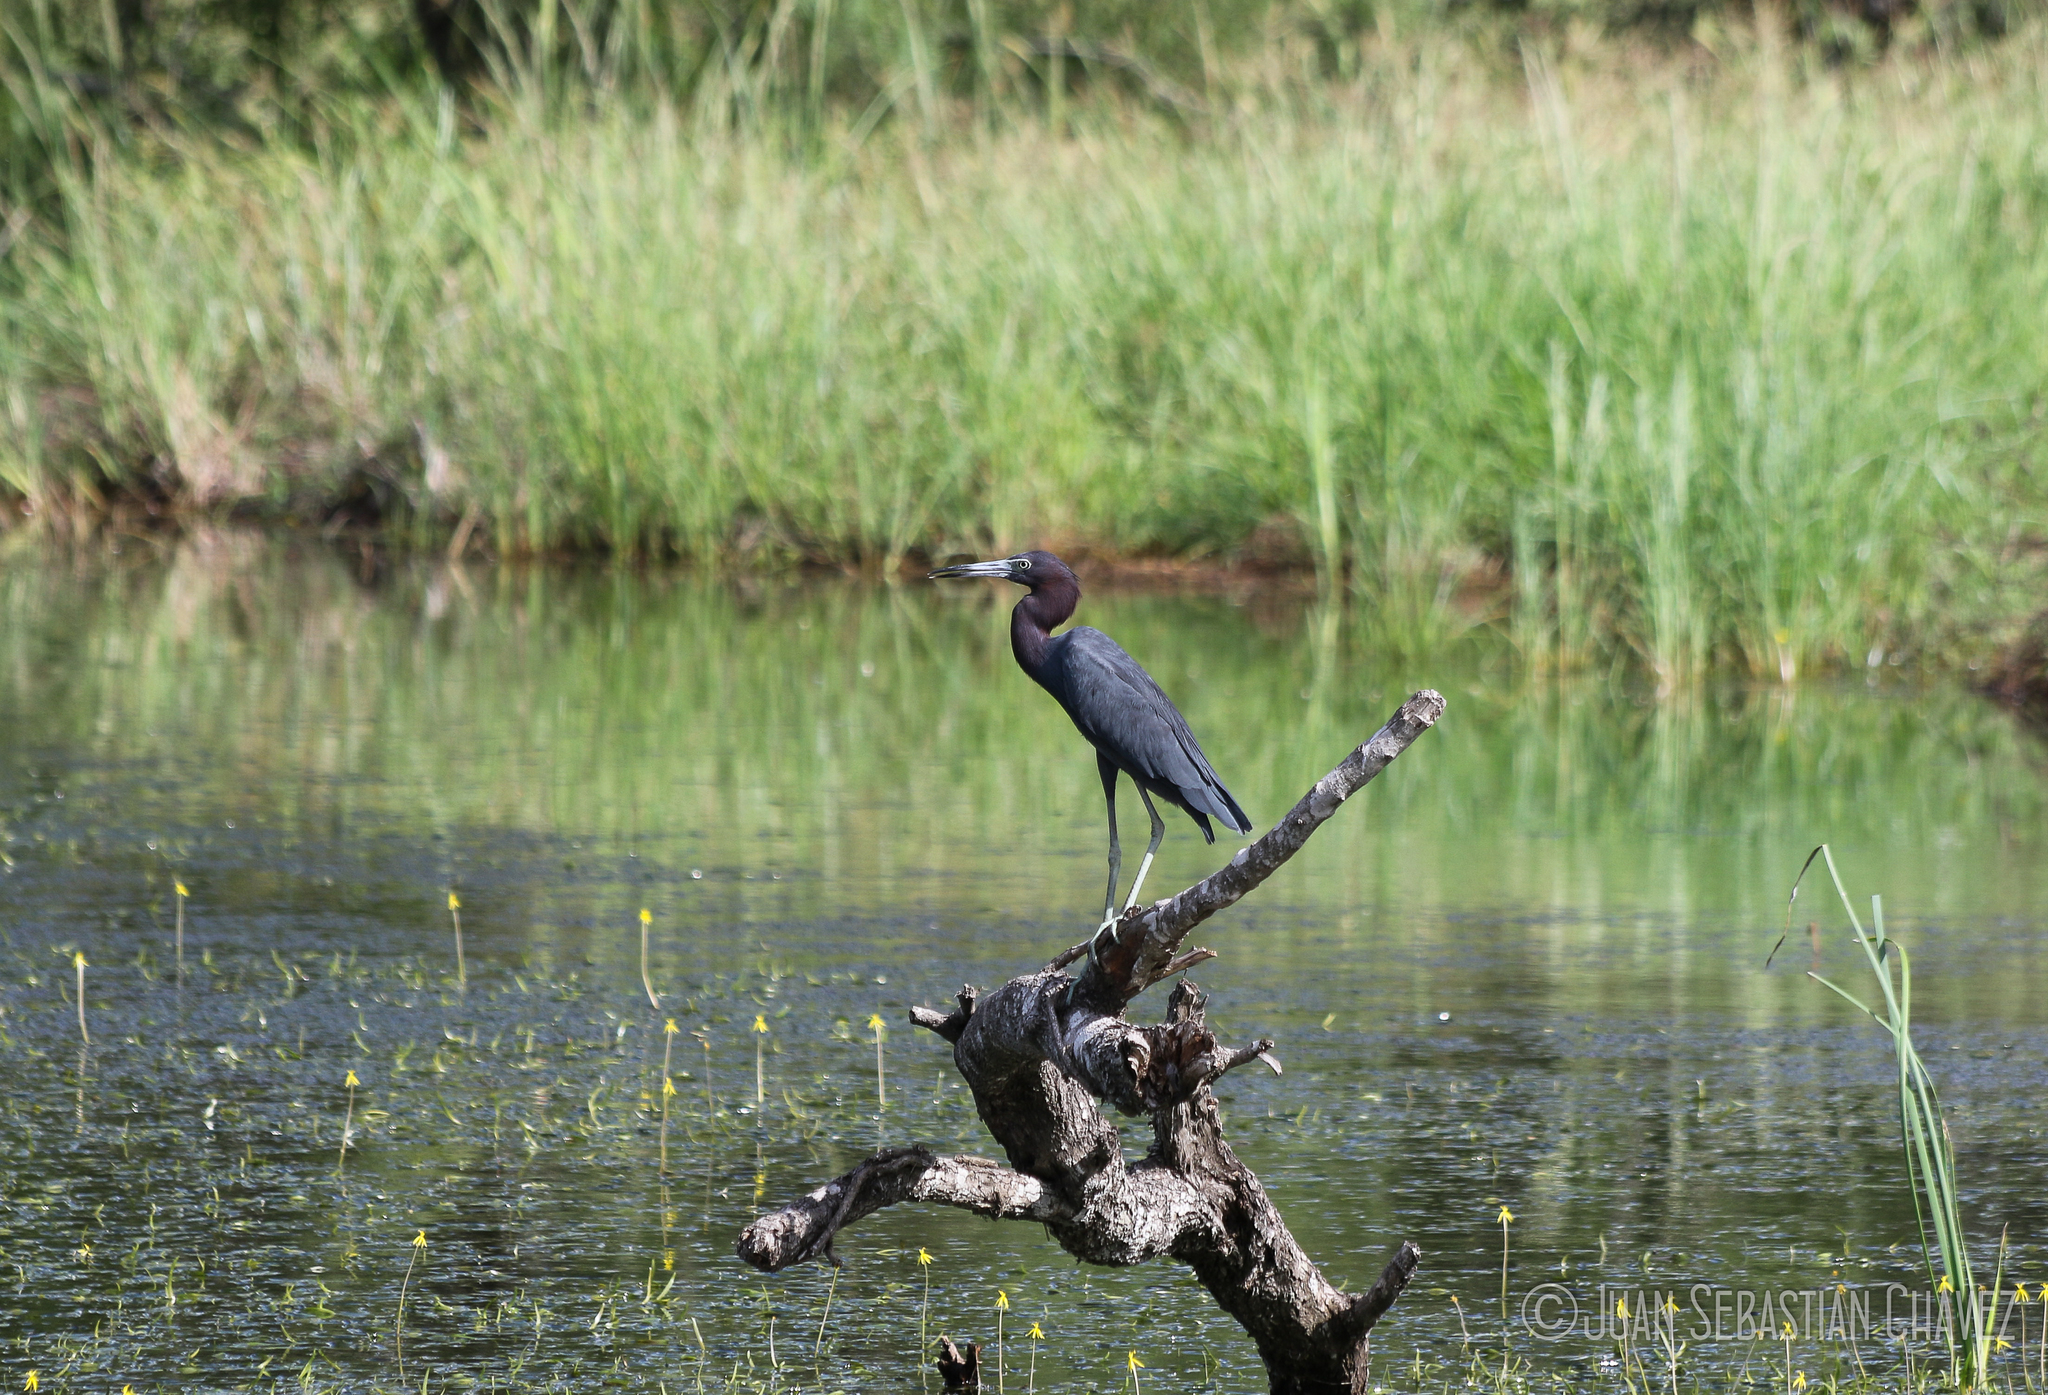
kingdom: Animalia
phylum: Chordata
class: Aves
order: Pelecaniformes
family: Ardeidae
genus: Egretta
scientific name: Egretta caerulea
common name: Little blue heron
